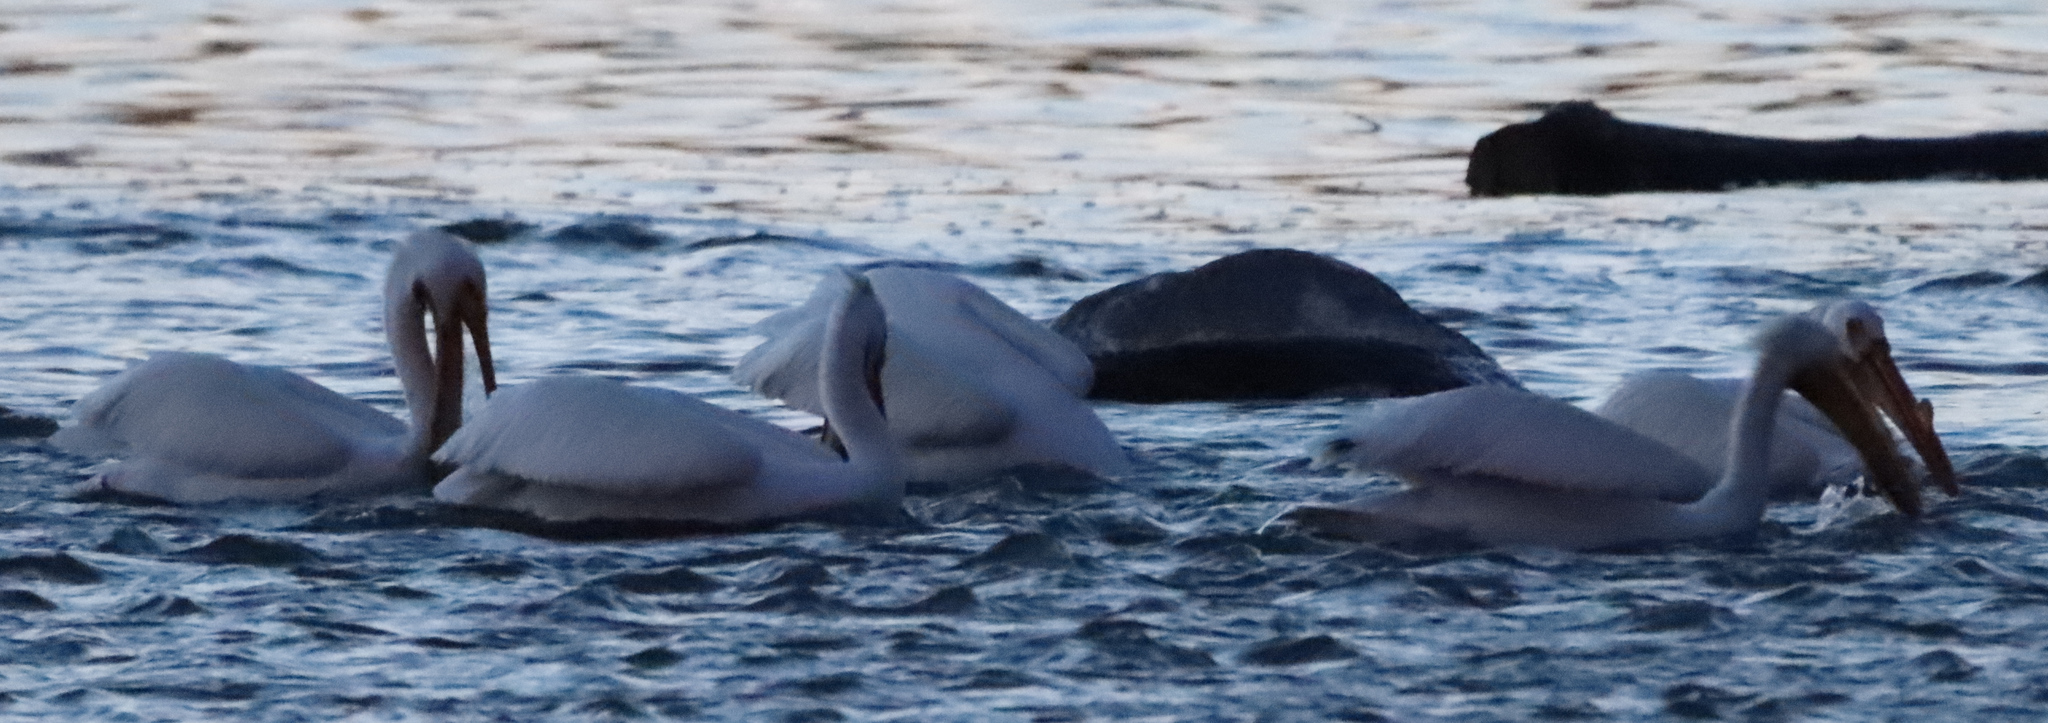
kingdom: Animalia
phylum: Chordata
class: Aves
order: Pelecaniformes
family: Pelecanidae
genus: Pelecanus
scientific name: Pelecanus erythrorhynchos
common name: American white pelican
